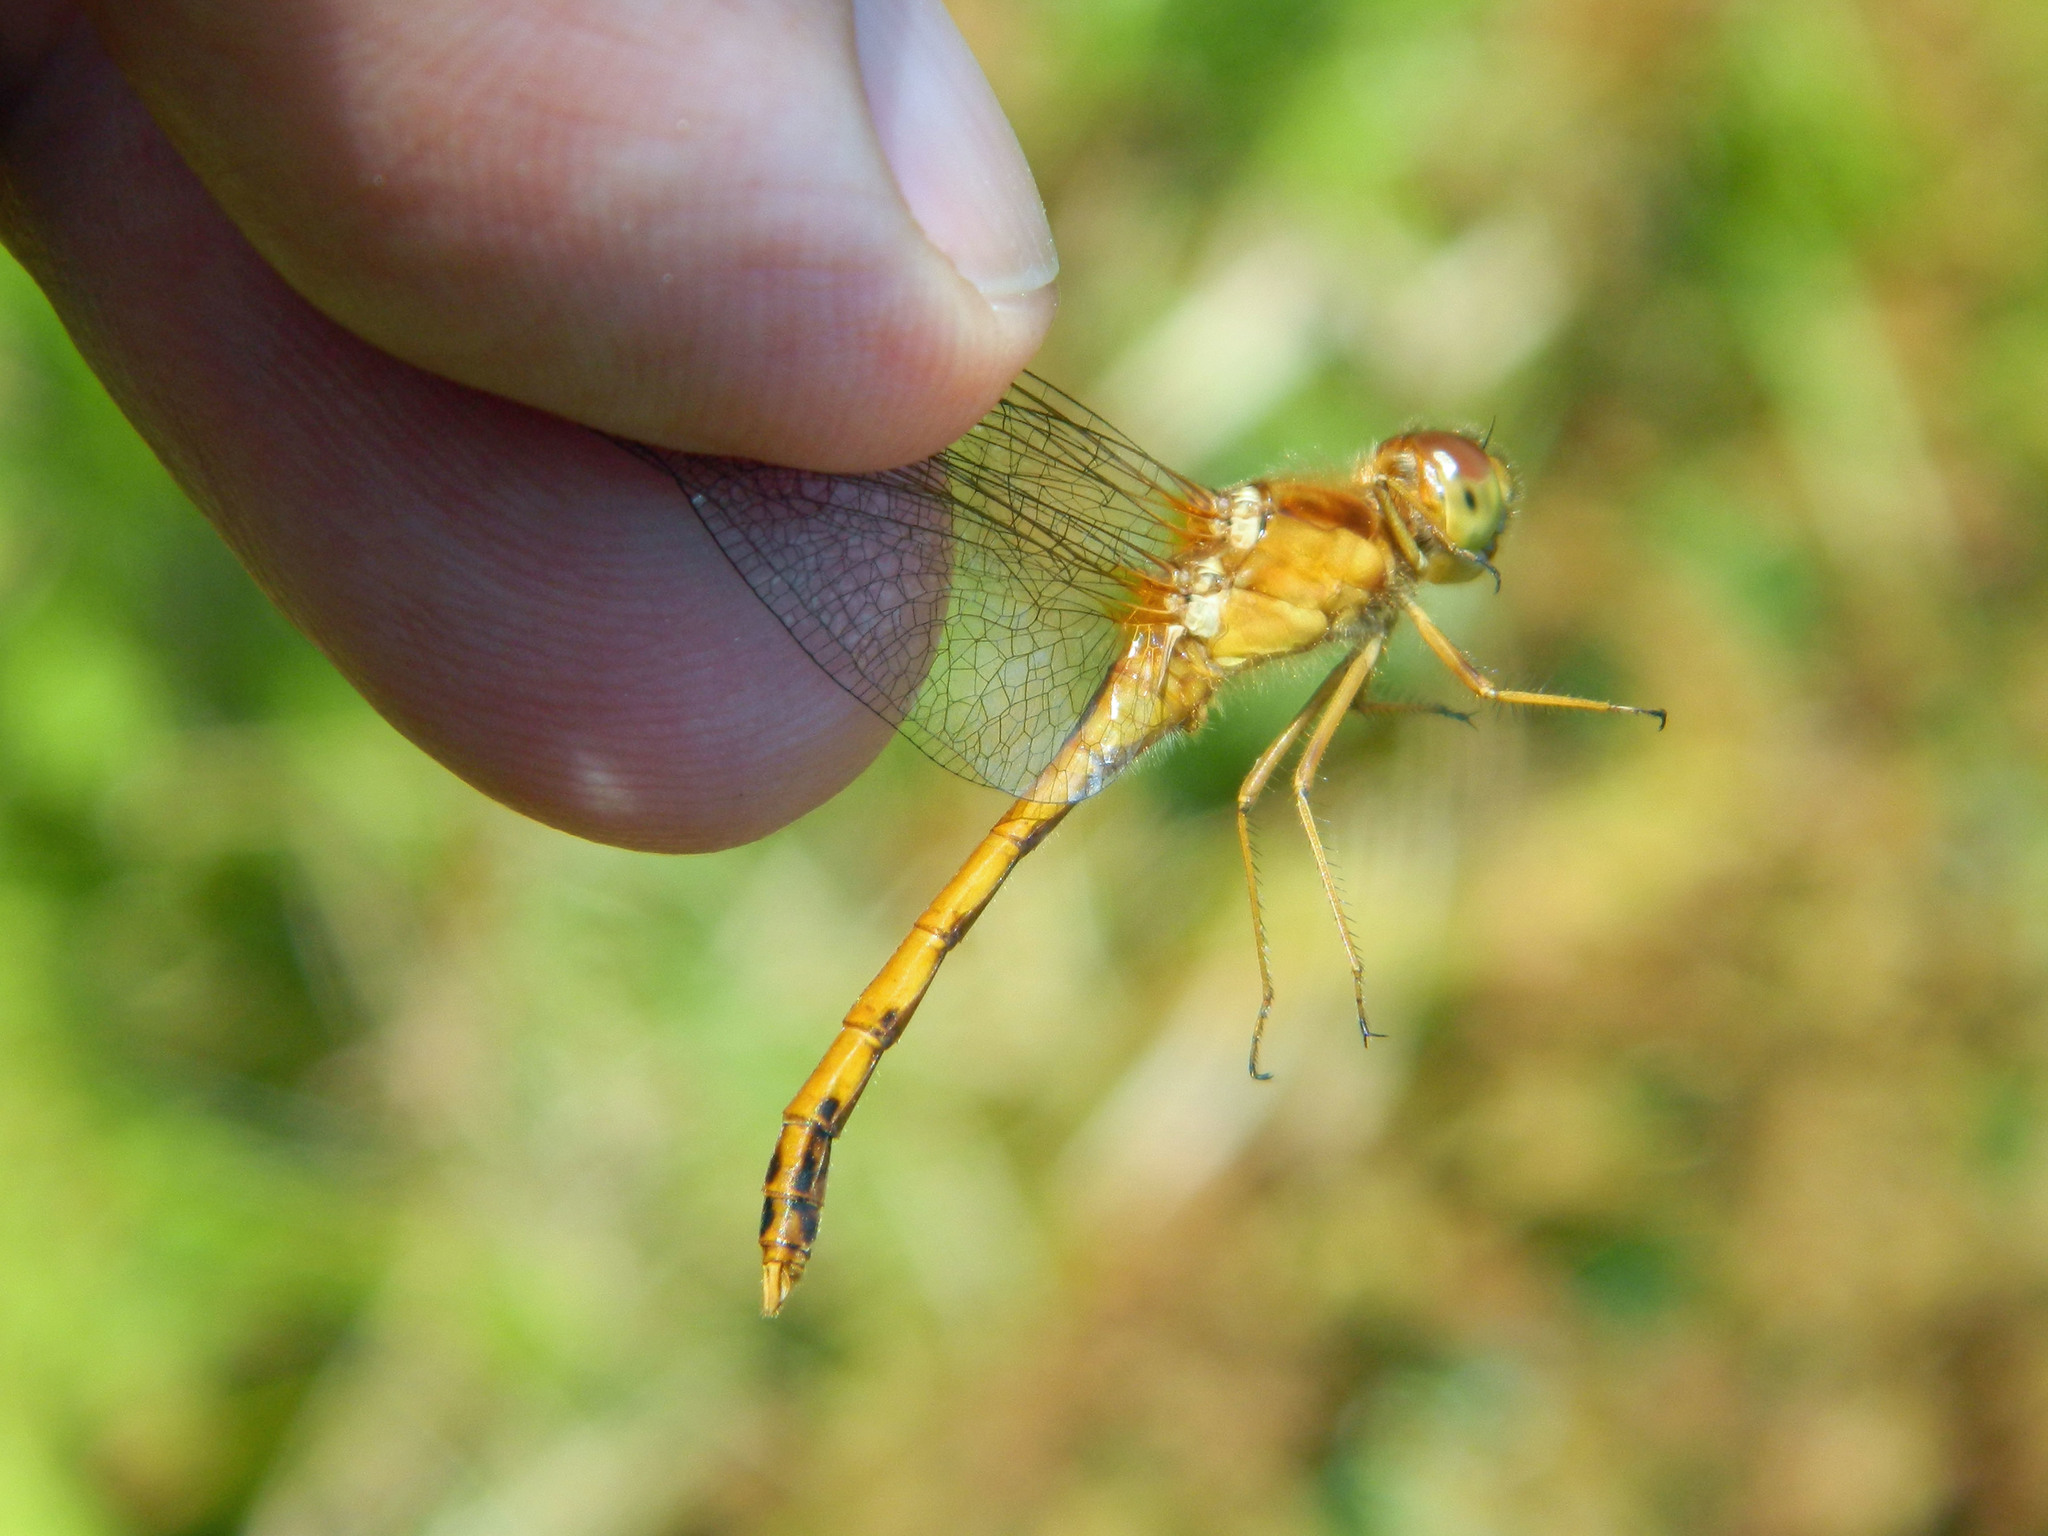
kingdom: Animalia
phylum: Arthropoda
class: Insecta
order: Odonata
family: Libellulidae
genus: Sympetrum
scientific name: Sympetrum vicinum
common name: Autumn meadowhawk
